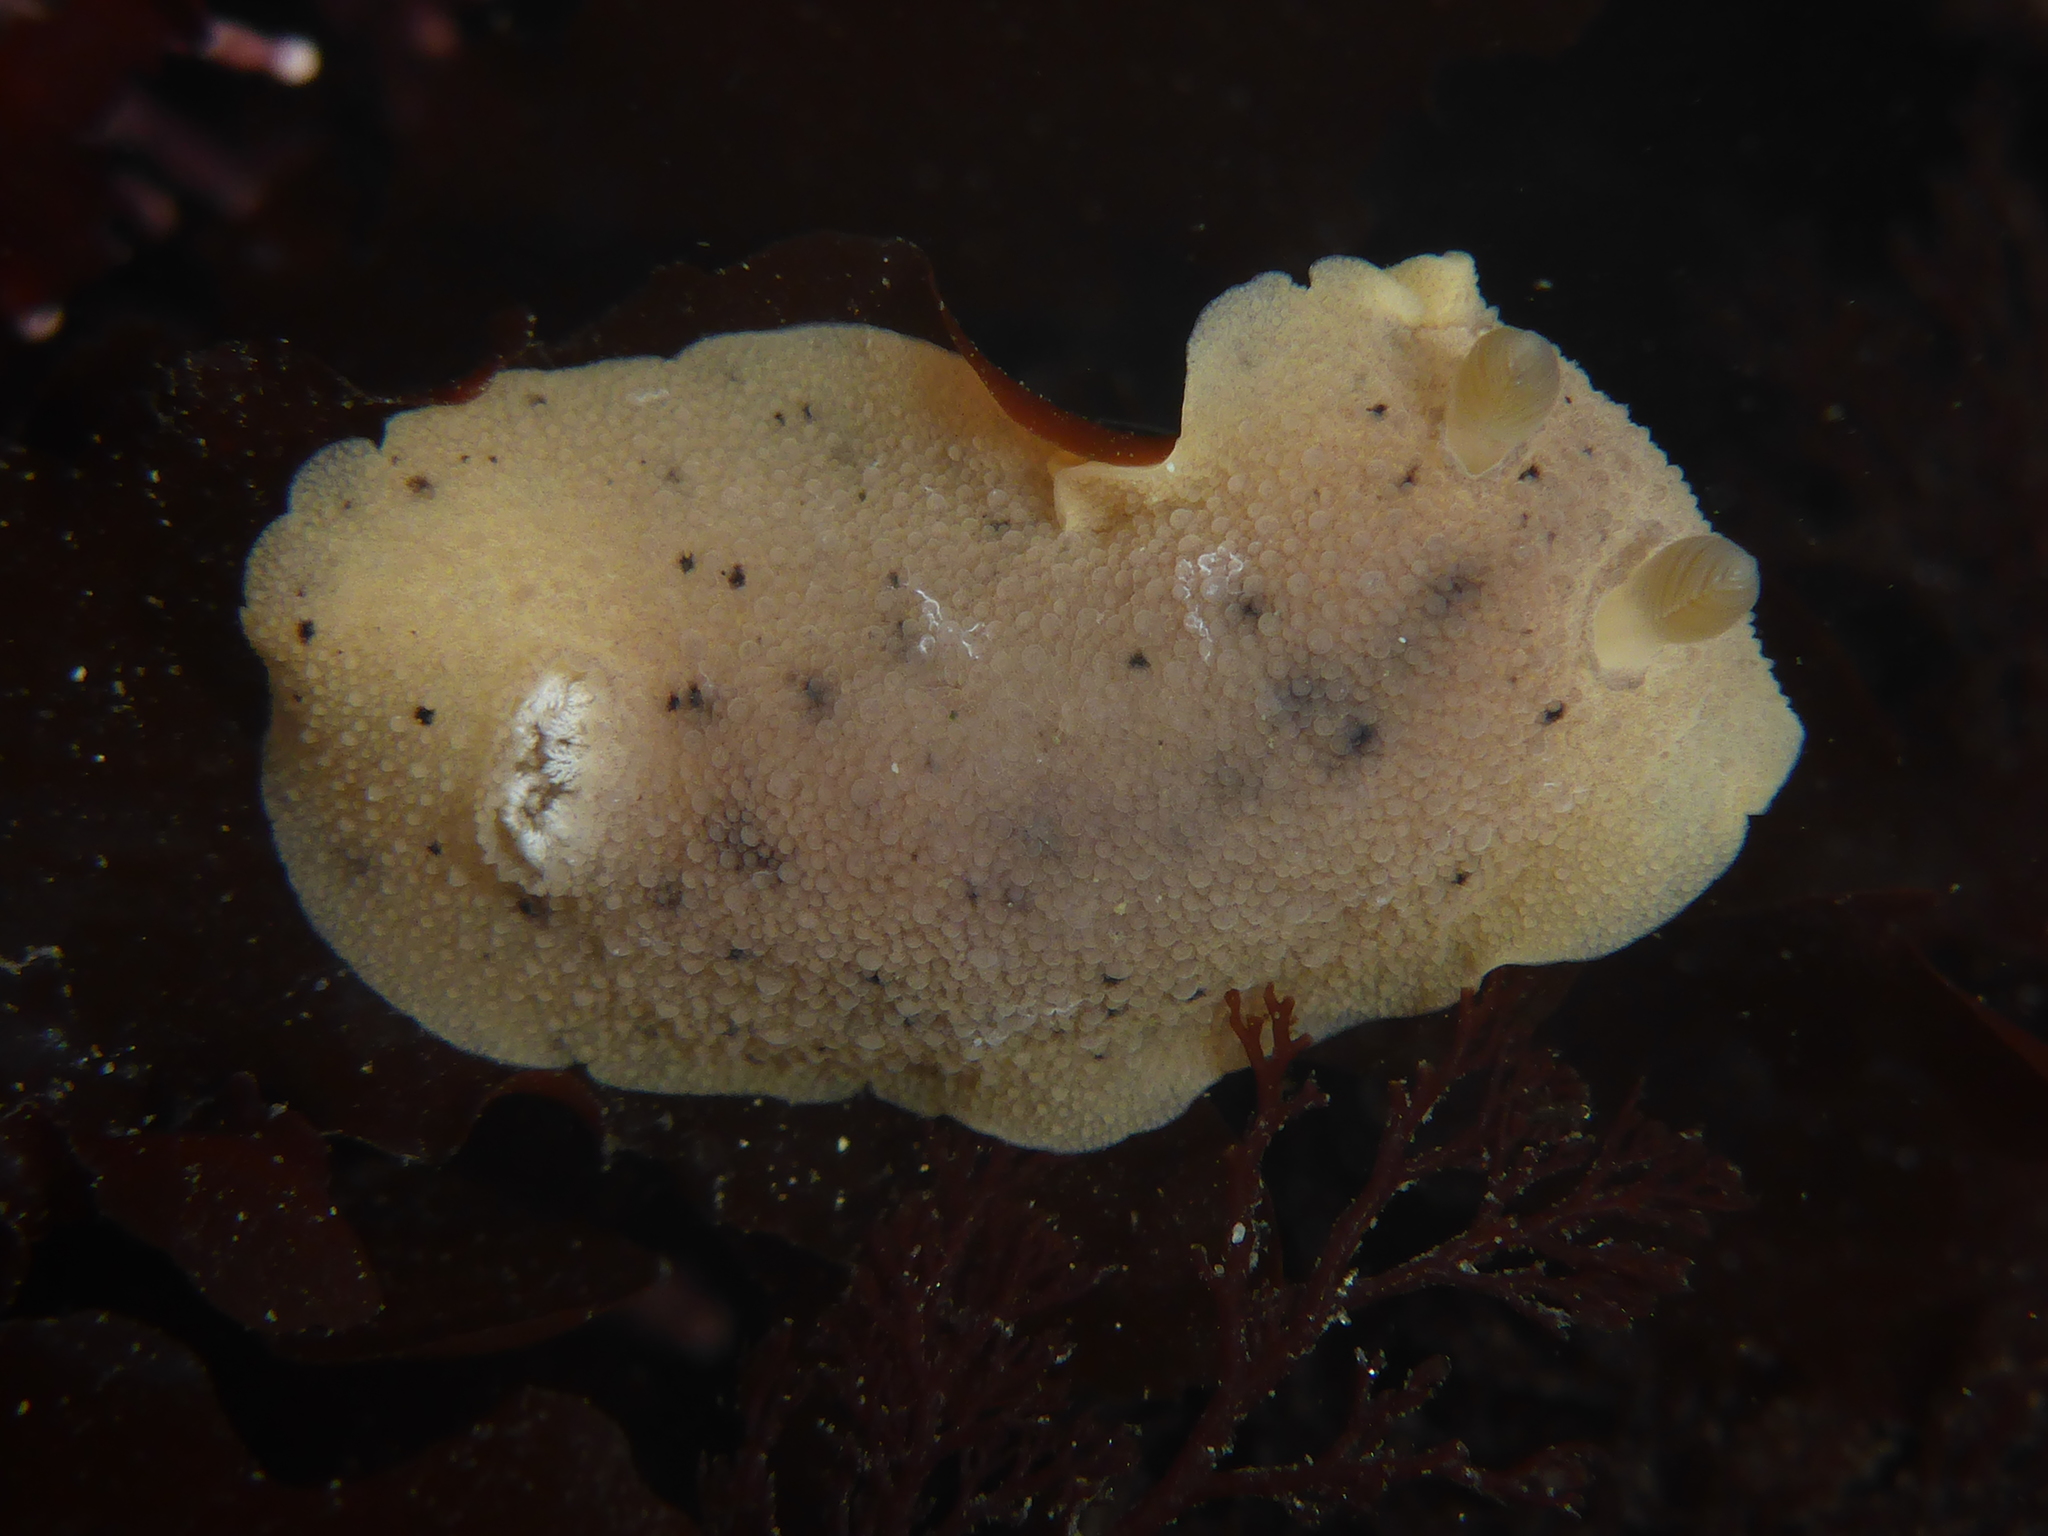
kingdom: Animalia
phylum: Mollusca
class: Gastropoda
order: Nudibranchia
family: Discodorididae
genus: Geitodoris
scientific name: Geitodoris heathi
